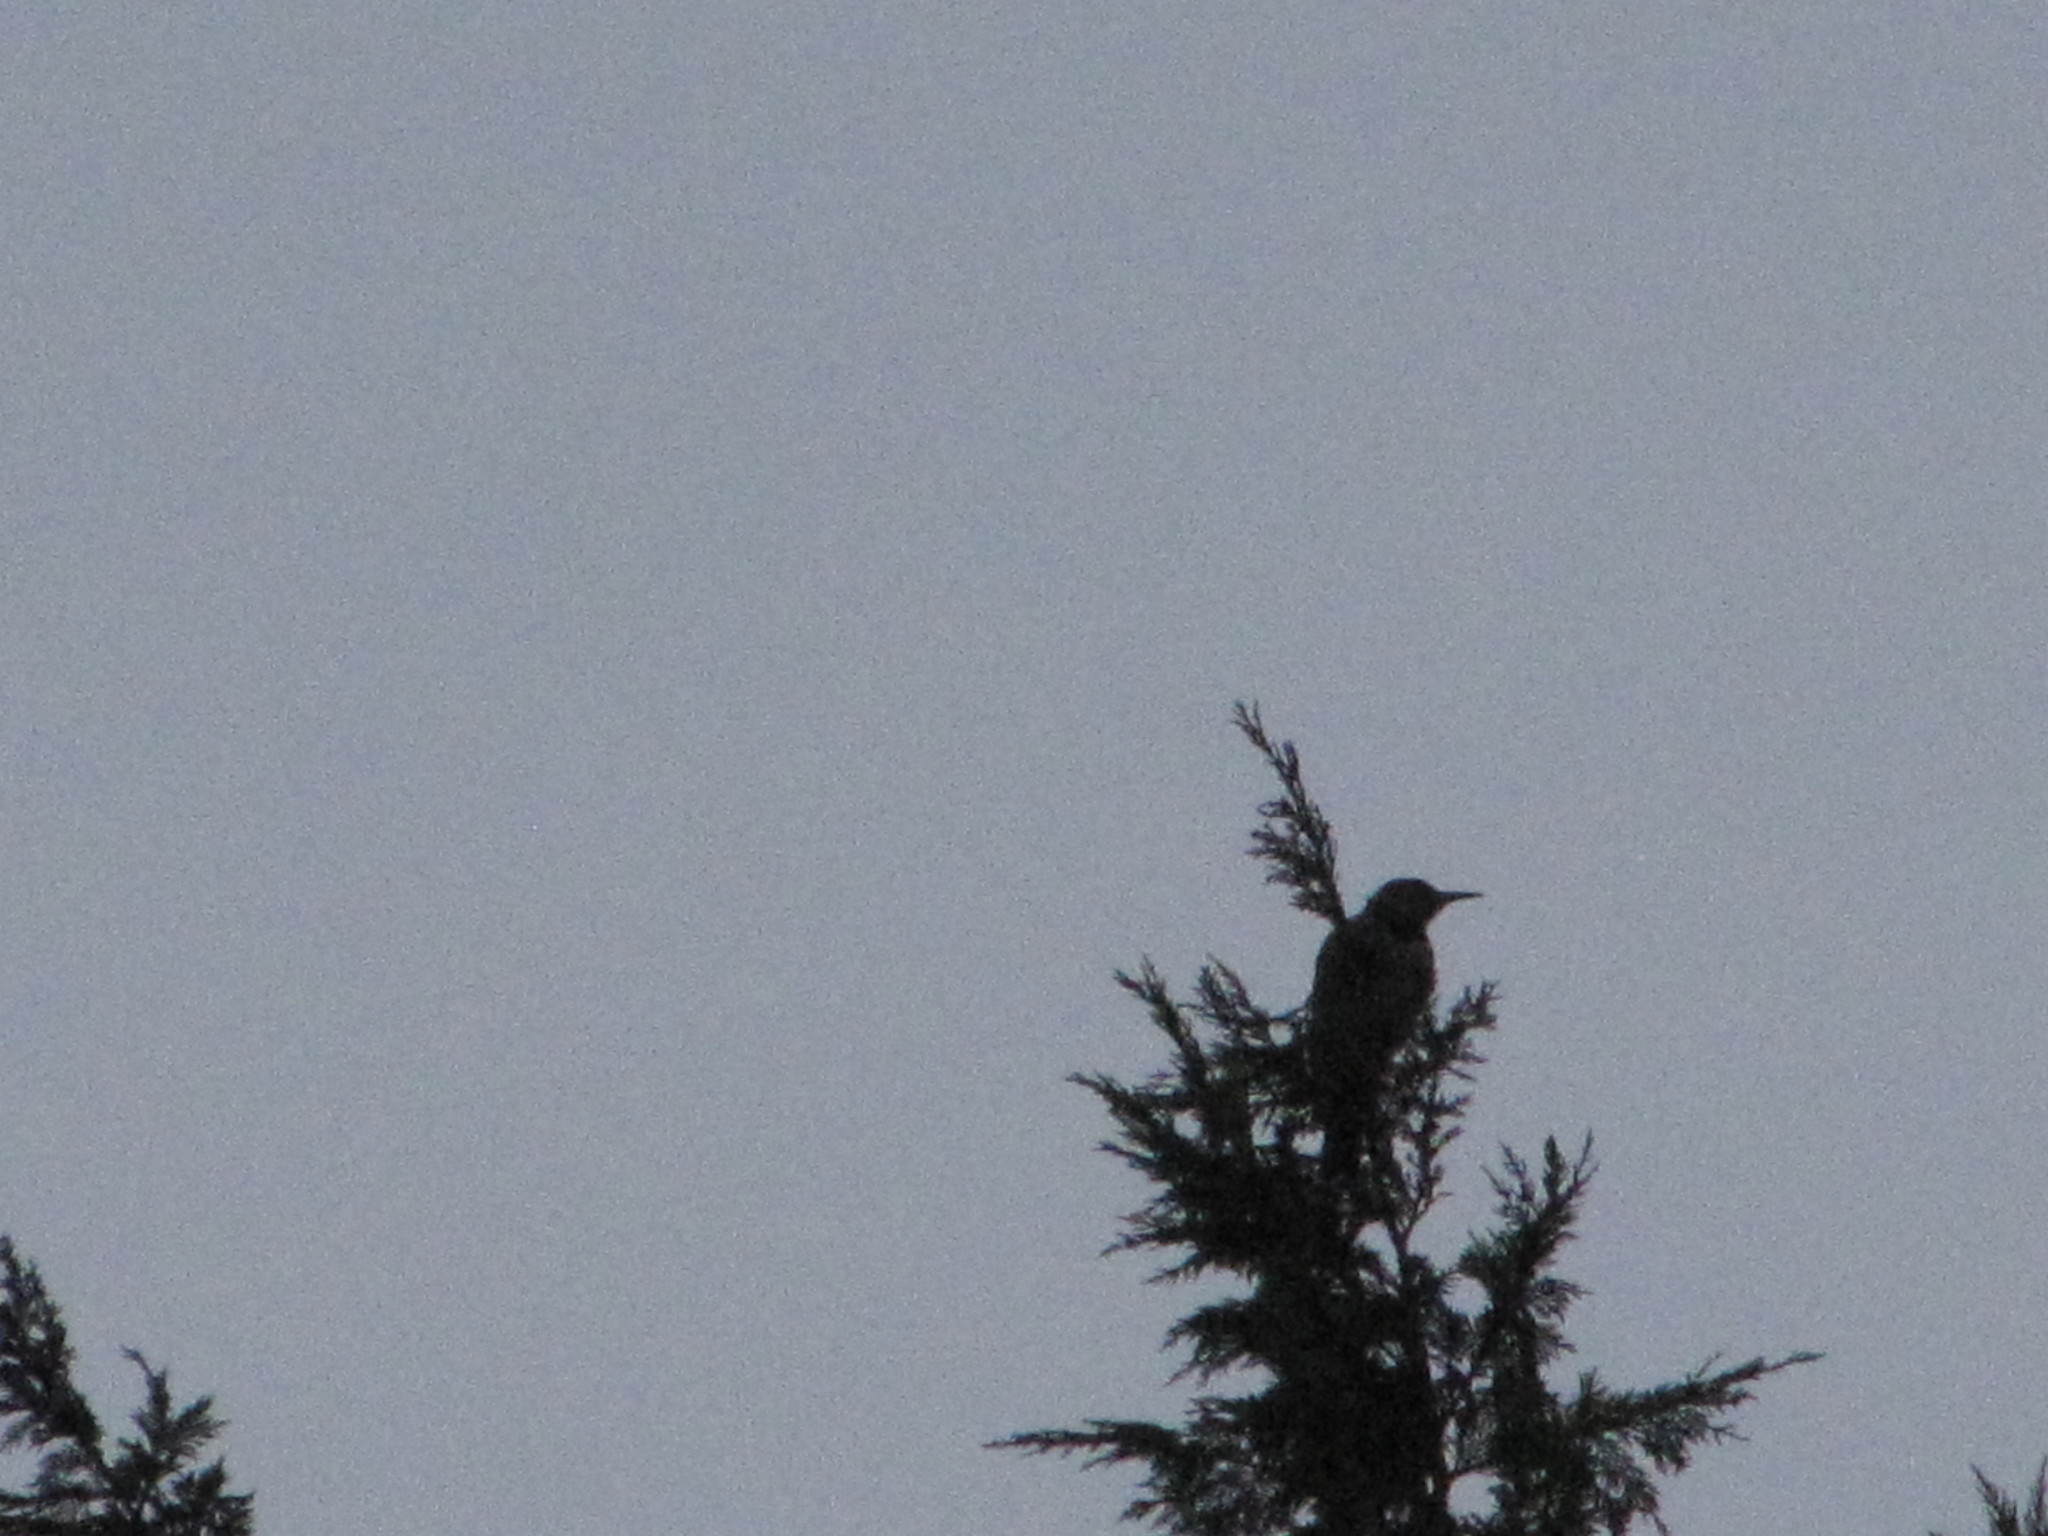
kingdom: Animalia
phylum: Chordata
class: Aves
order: Piciformes
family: Picidae
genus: Colaptes
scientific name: Colaptes auratus
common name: Northern flicker
